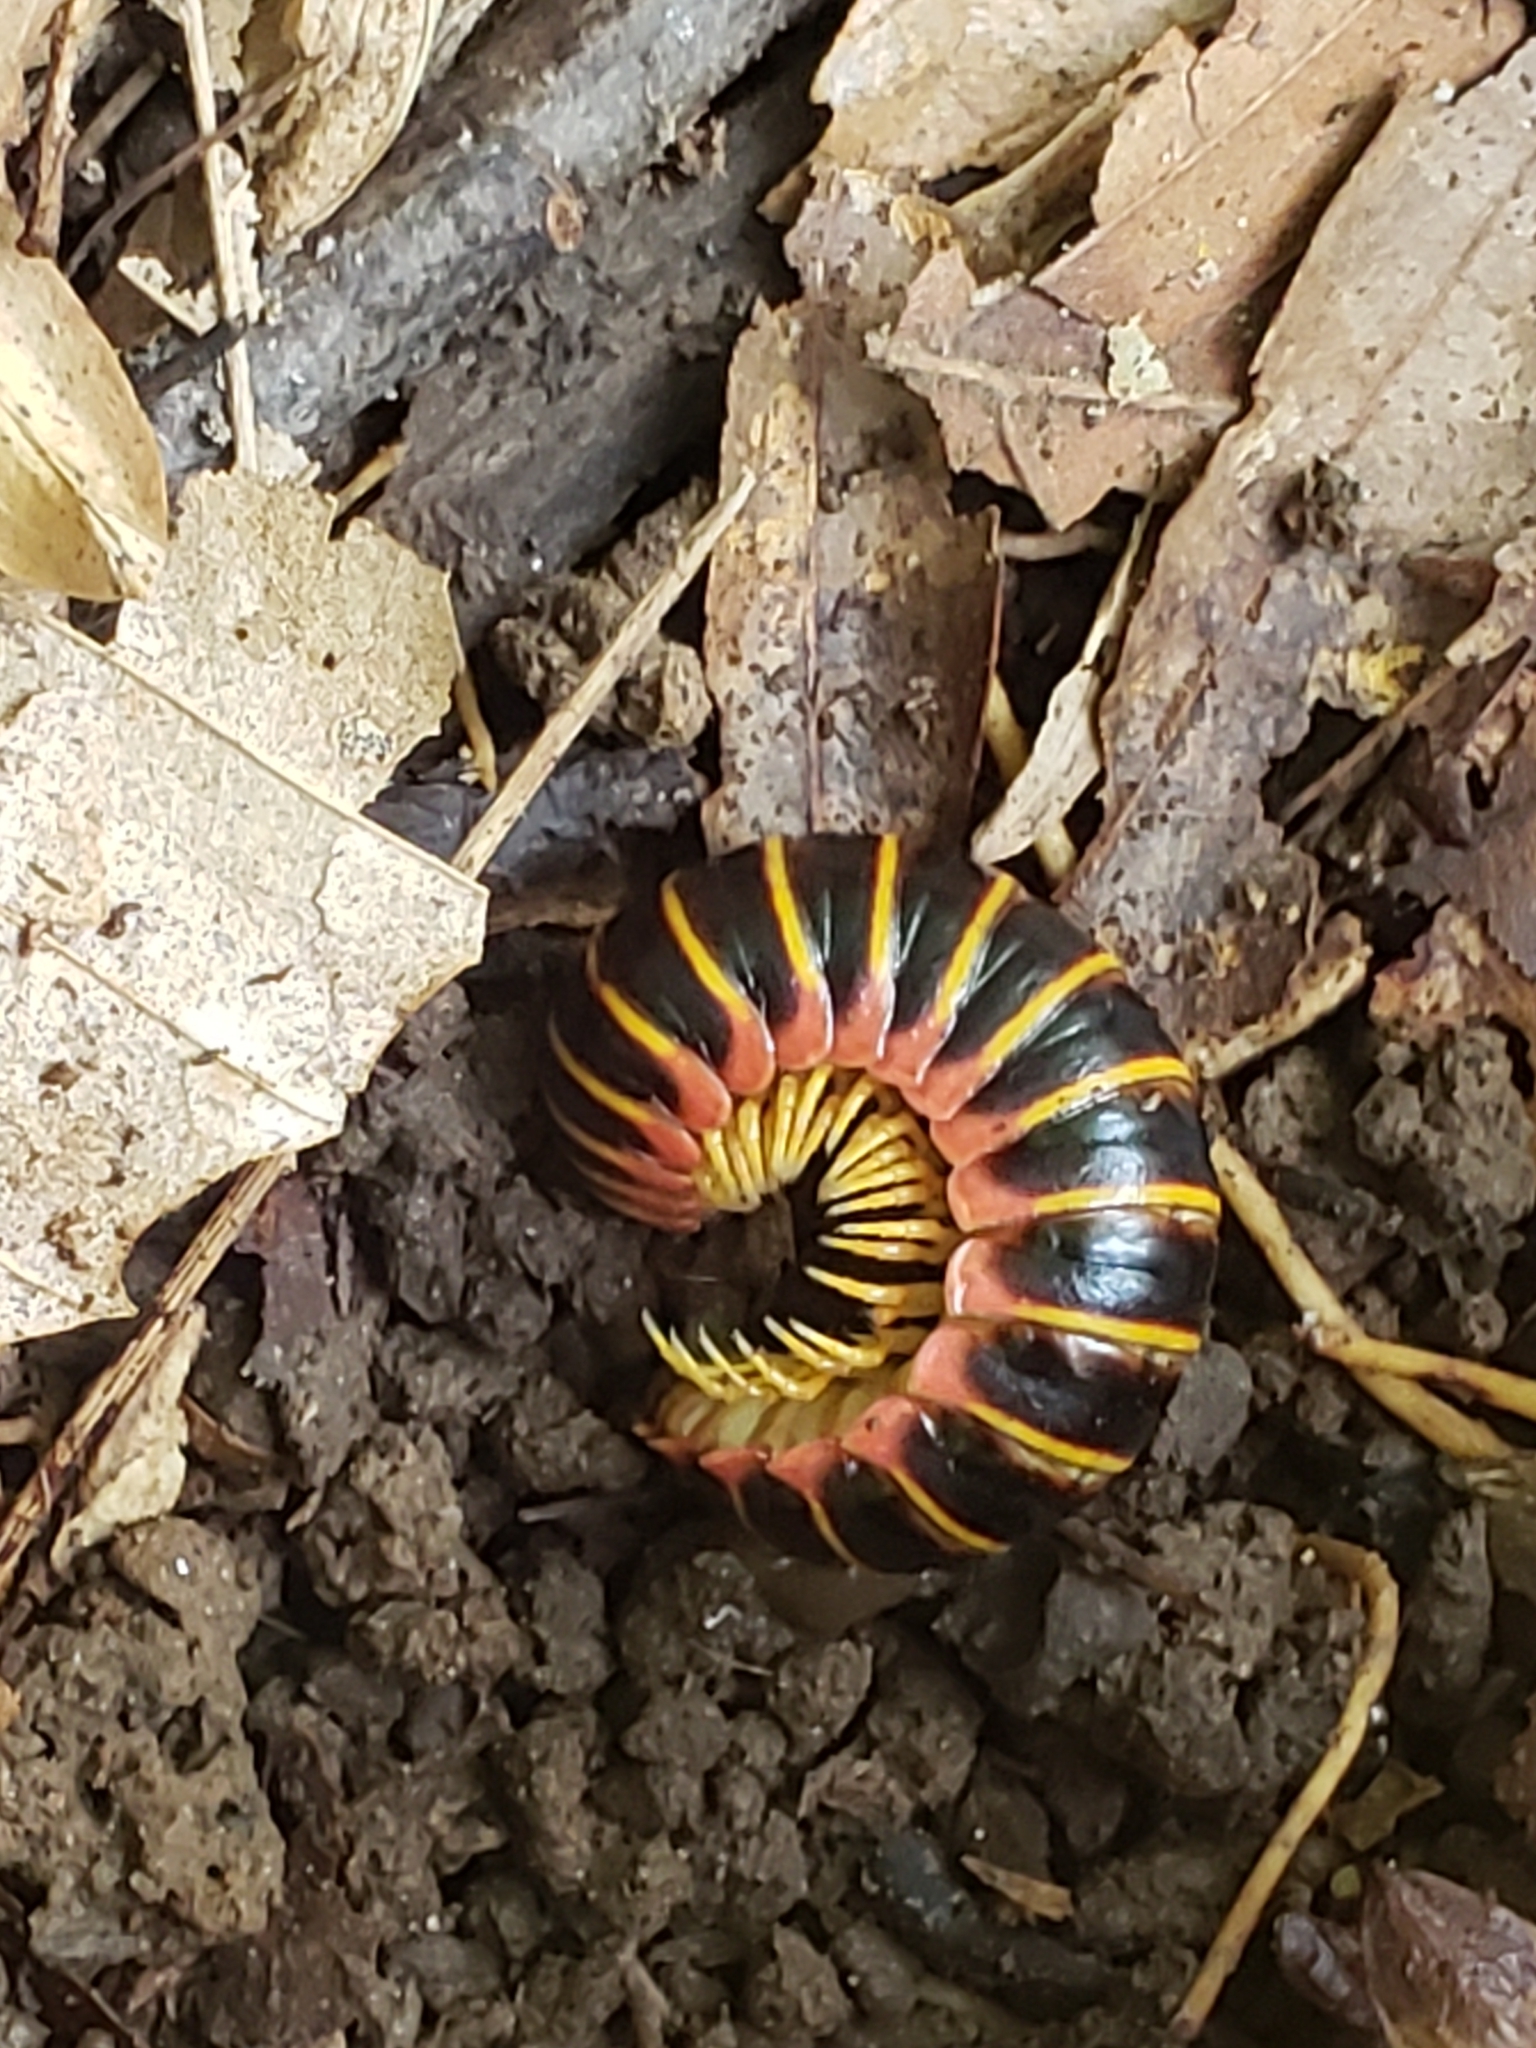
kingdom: Animalia
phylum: Arthropoda
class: Diplopoda
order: Polydesmida
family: Xystodesmidae
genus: Apheloria
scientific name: Apheloria virginiensis
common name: Black-and-gold flat millipede
